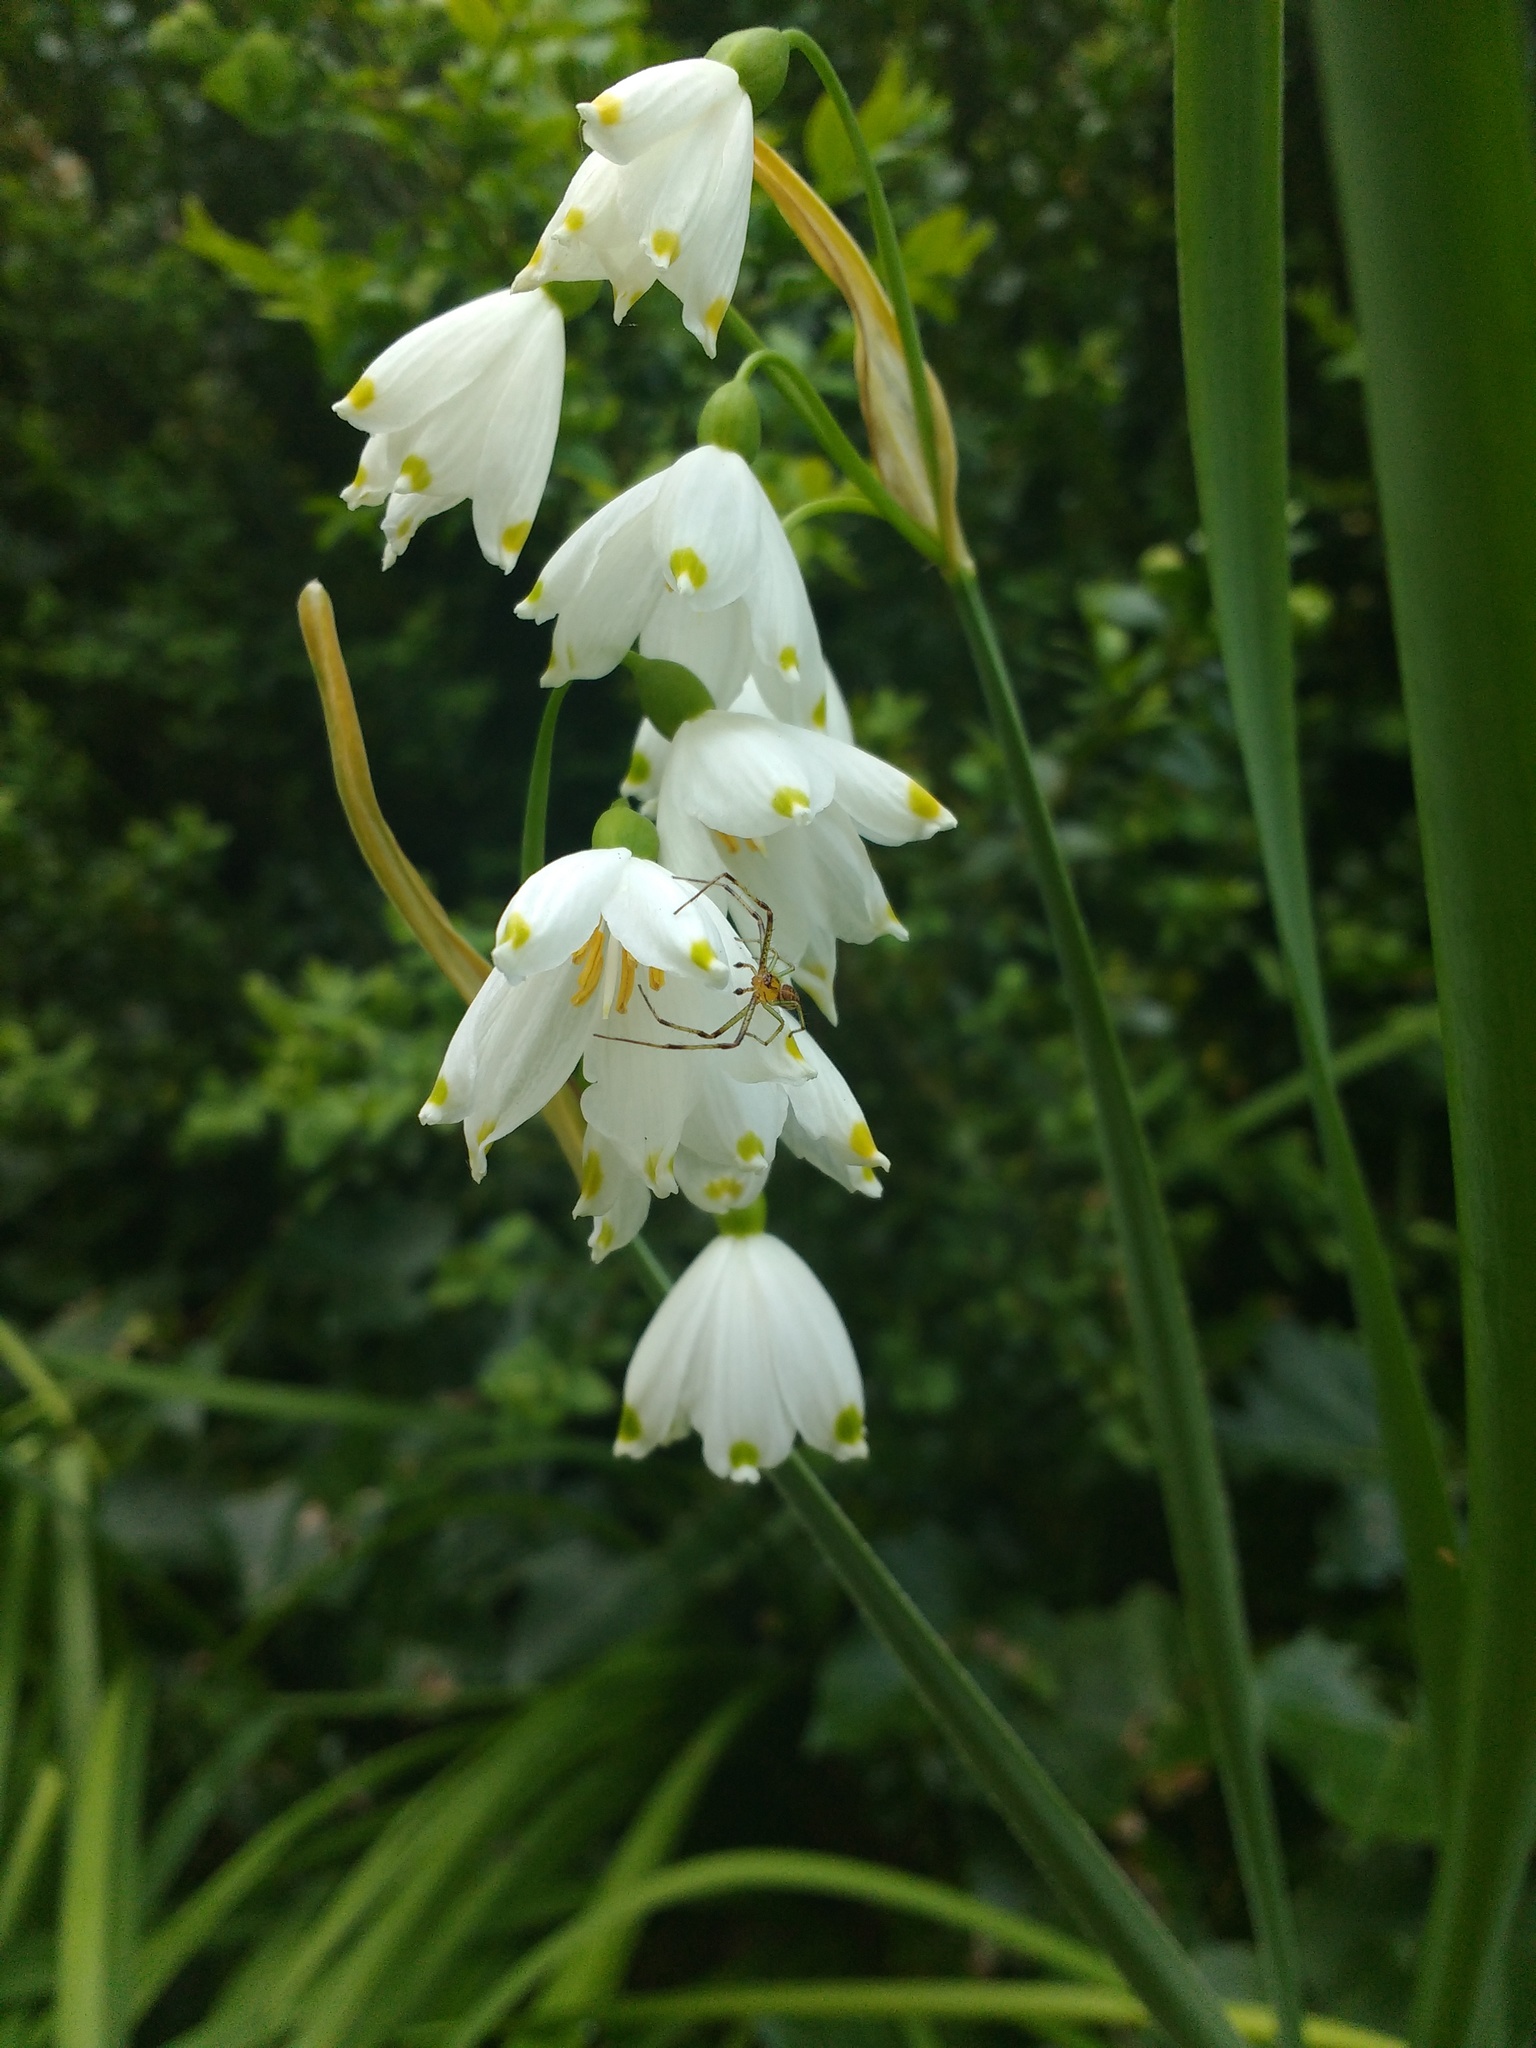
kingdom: Plantae
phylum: Tracheophyta
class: Liliopsida
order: Asparagales
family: Amaryllidaceae
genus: Leucojum
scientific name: Leucojum aestivum
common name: Summer snowflake
